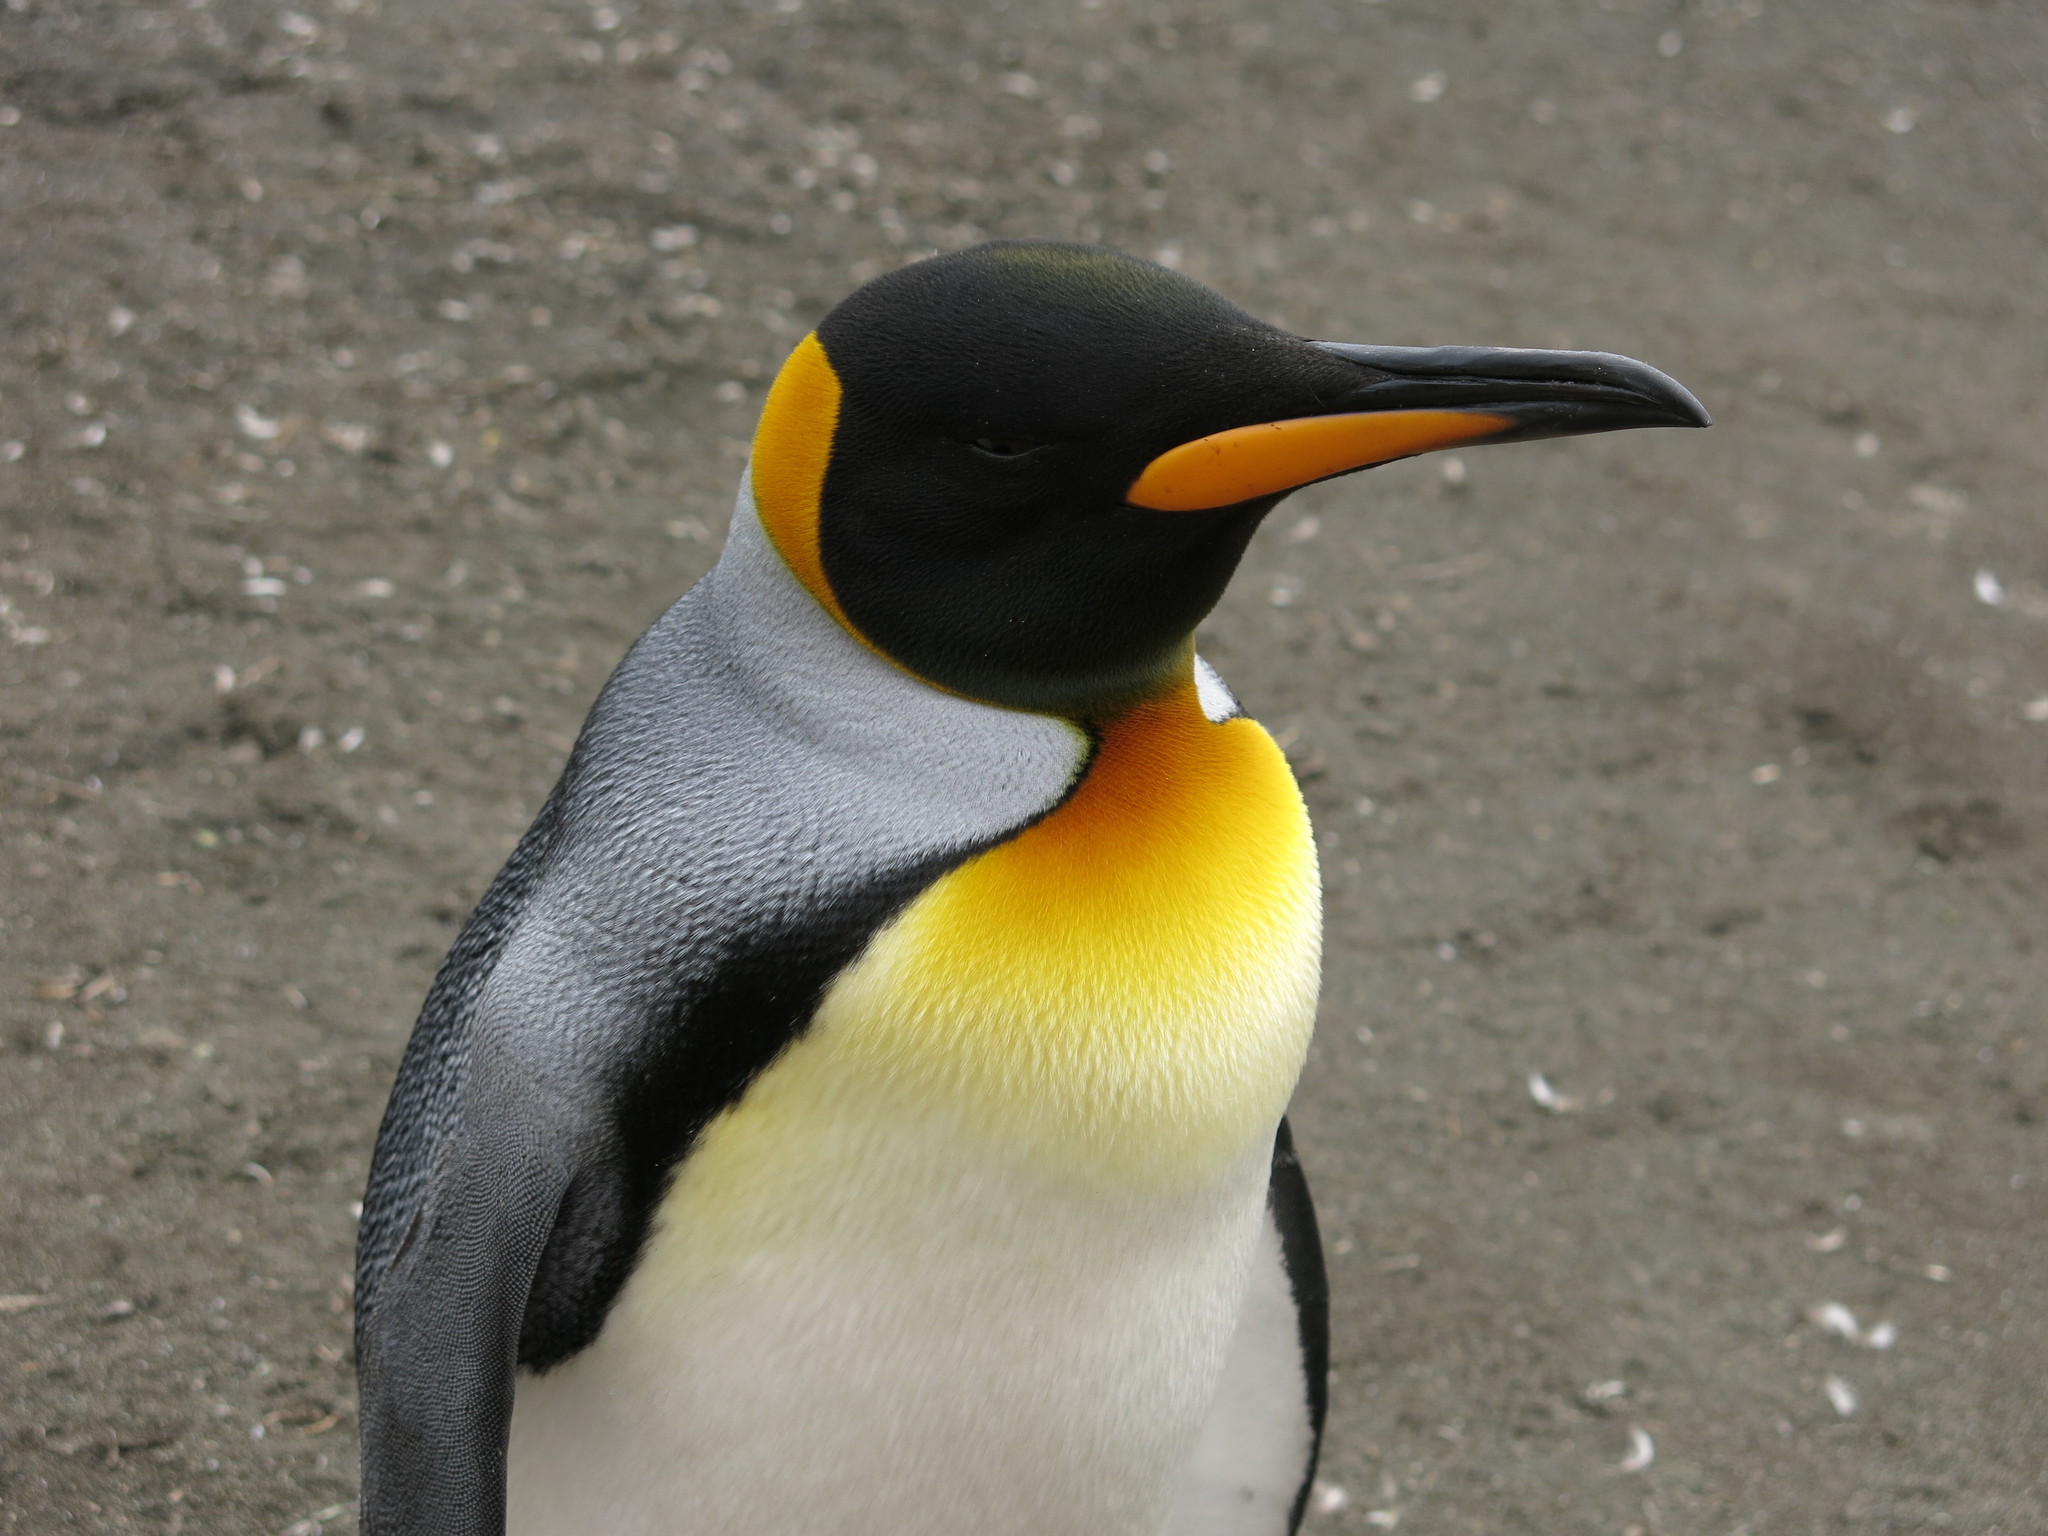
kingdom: Animalia
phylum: Chordata
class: Aves
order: Sphenisciformes
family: Spheniscidae
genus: Aptenodytes
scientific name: Aptenodytes patagonicus
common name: King penguin
